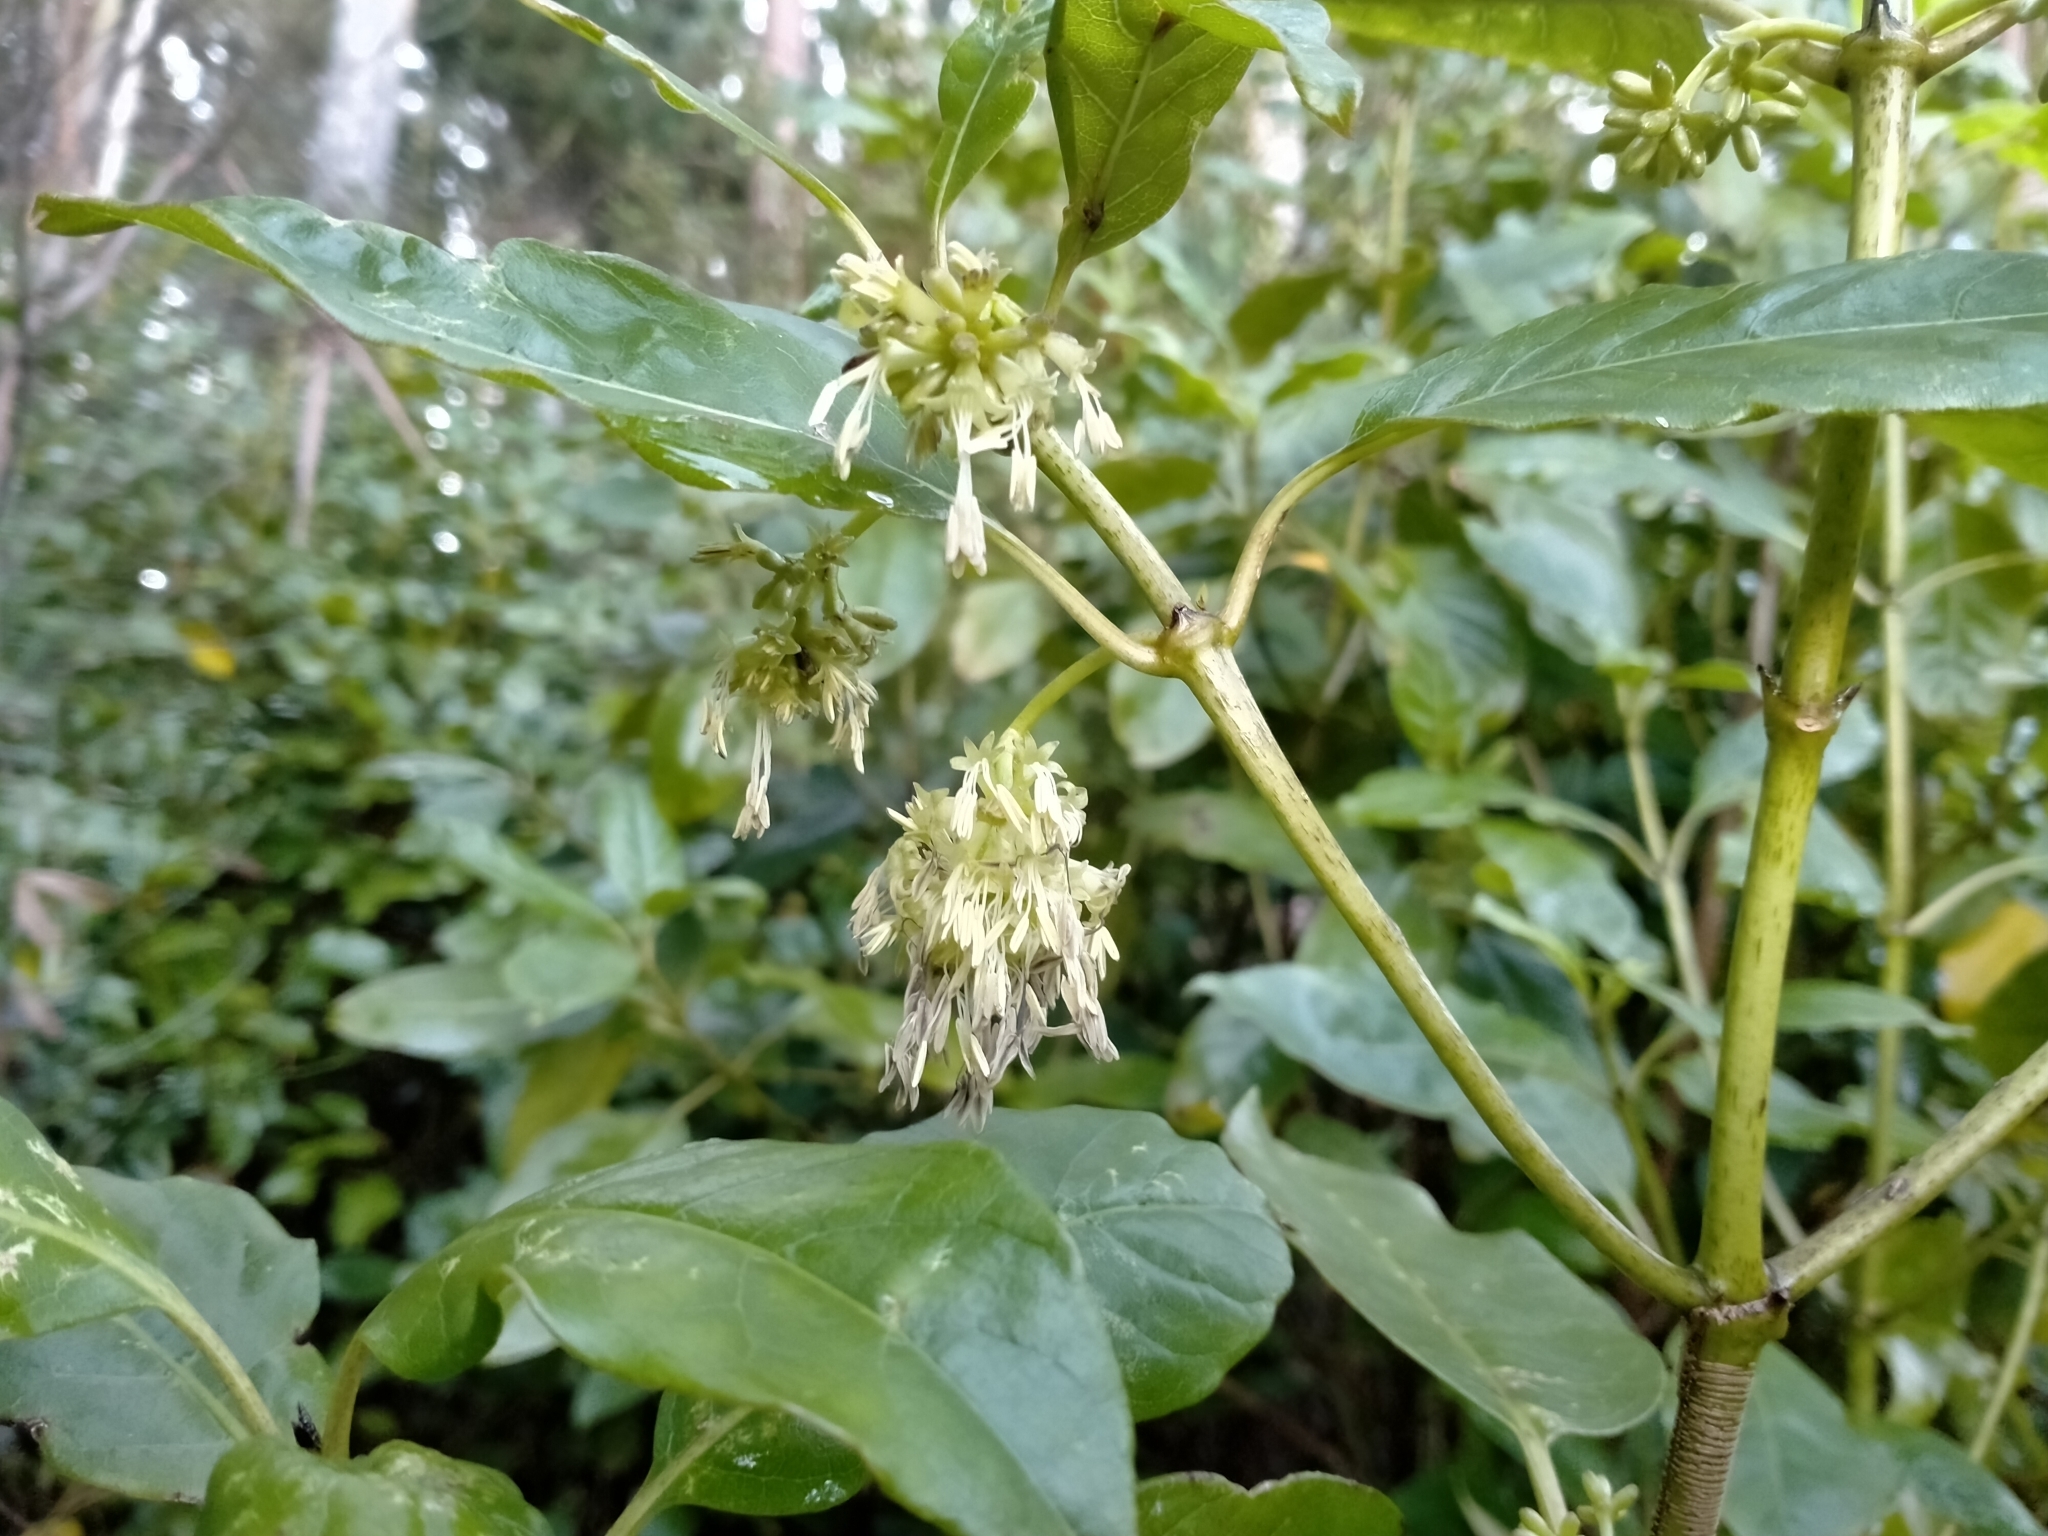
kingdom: Plantae
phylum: Tracheophyta
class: Magnoliopsida
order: Gentianales
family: Rubiaceae
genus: Coprosma
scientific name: Coprosma autumnalis
